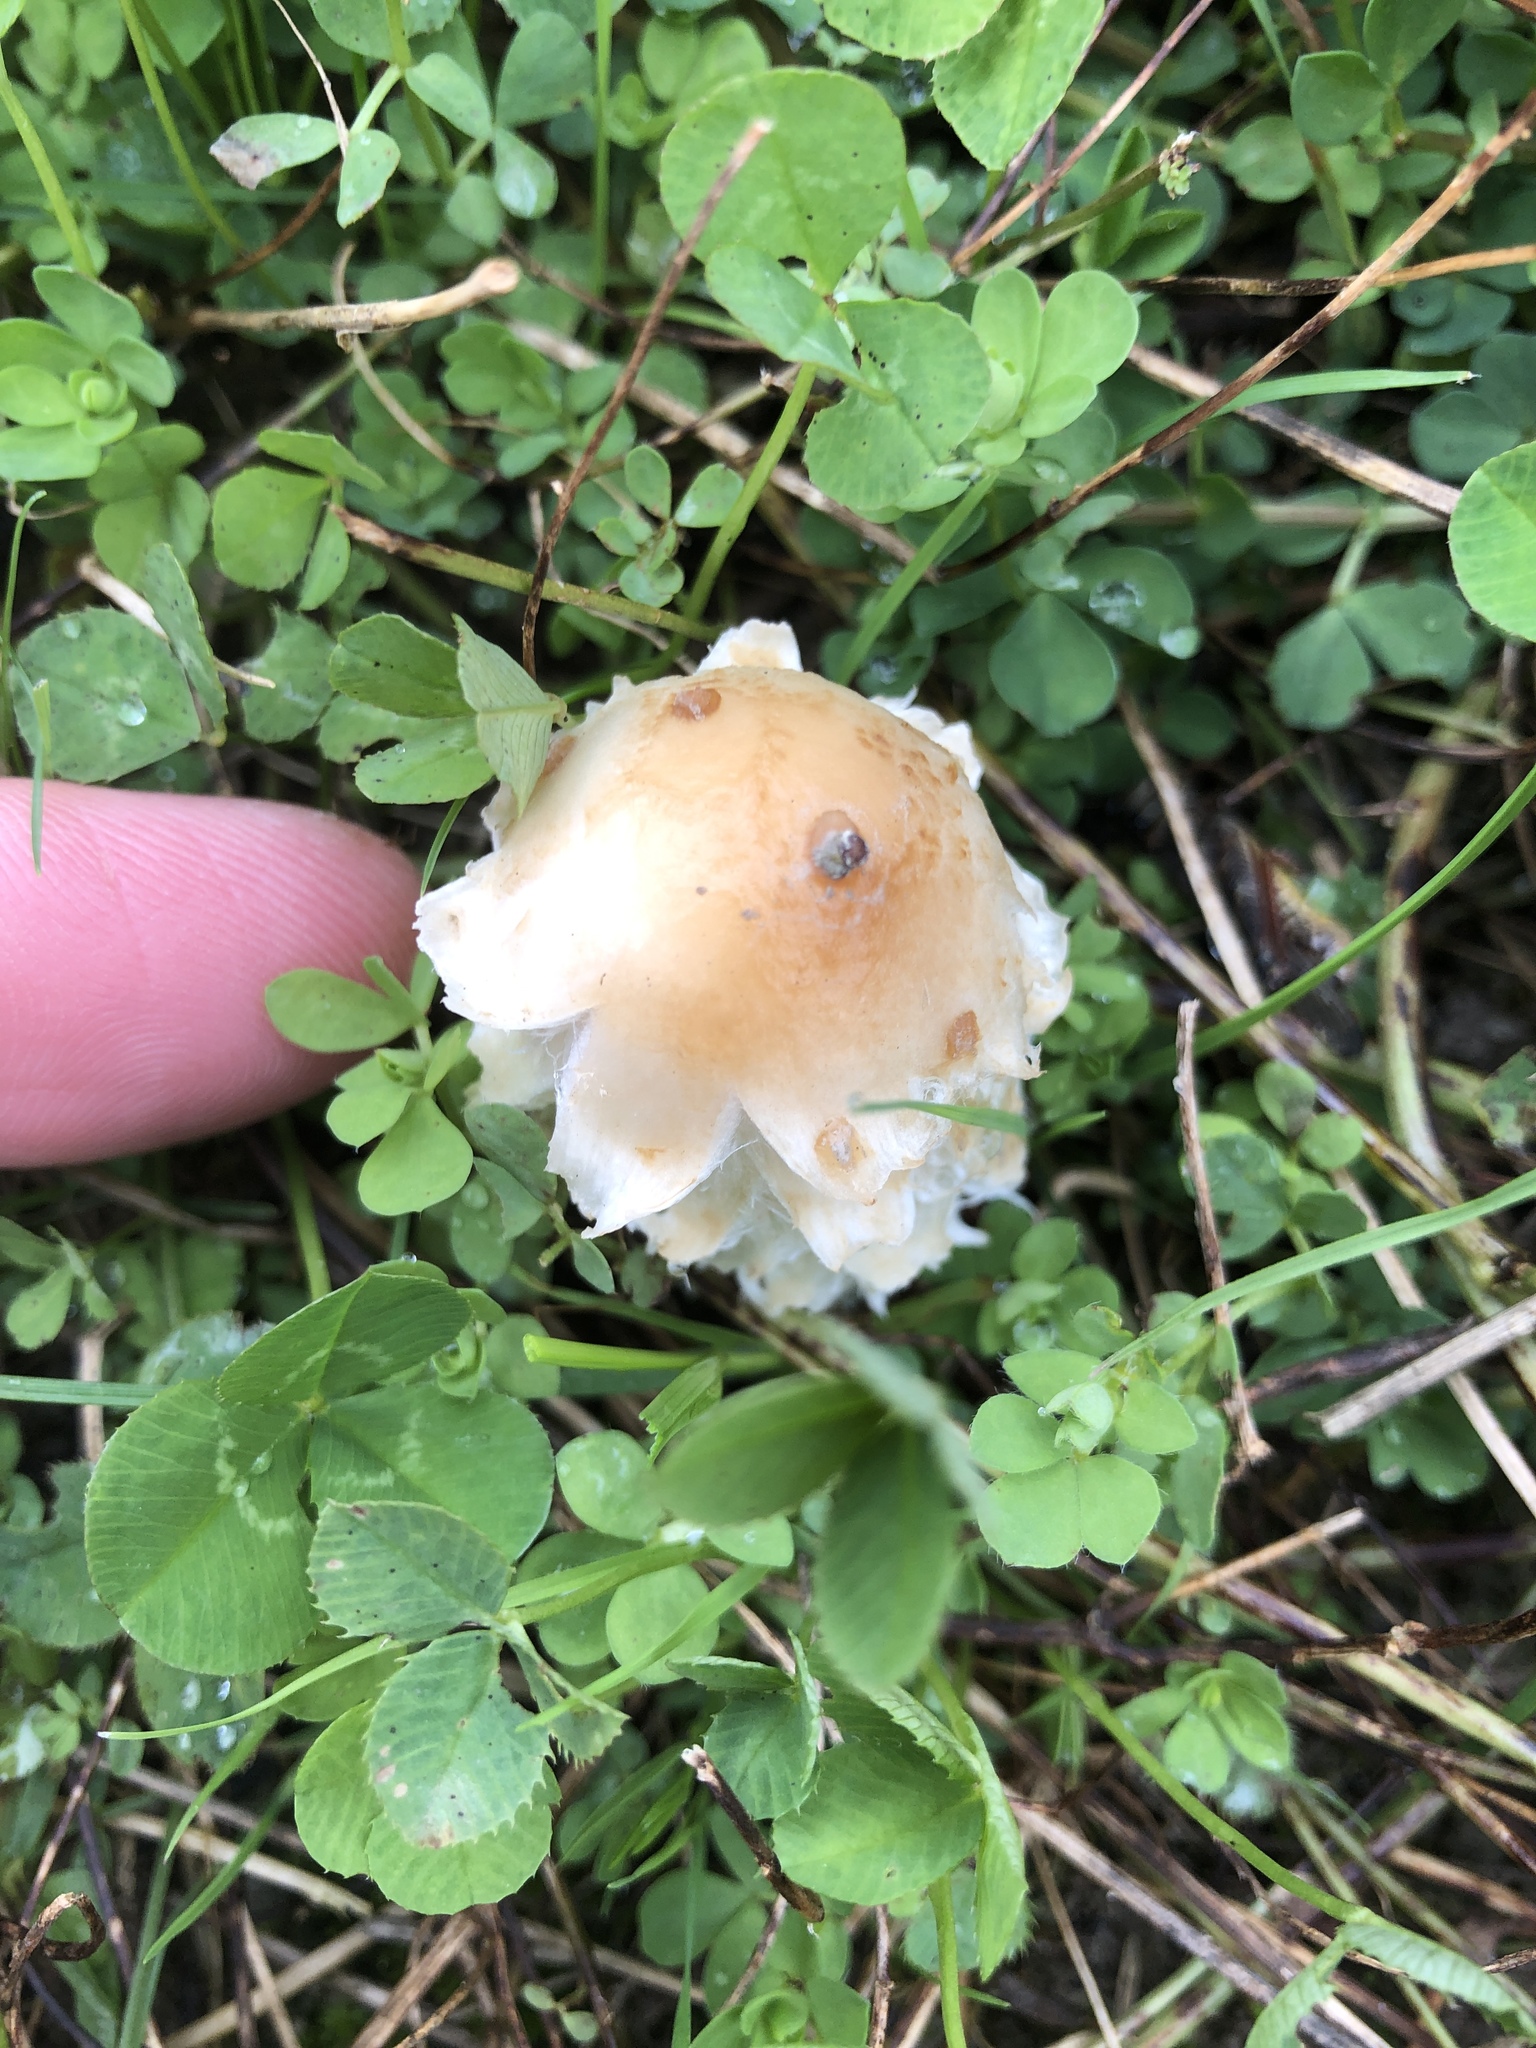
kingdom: Fungi
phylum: Basidiomycota
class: Agaricomycetes
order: Agaricales
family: Agaricaceae
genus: Coprinus
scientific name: Coprinus comatus
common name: Lawyer's wig
